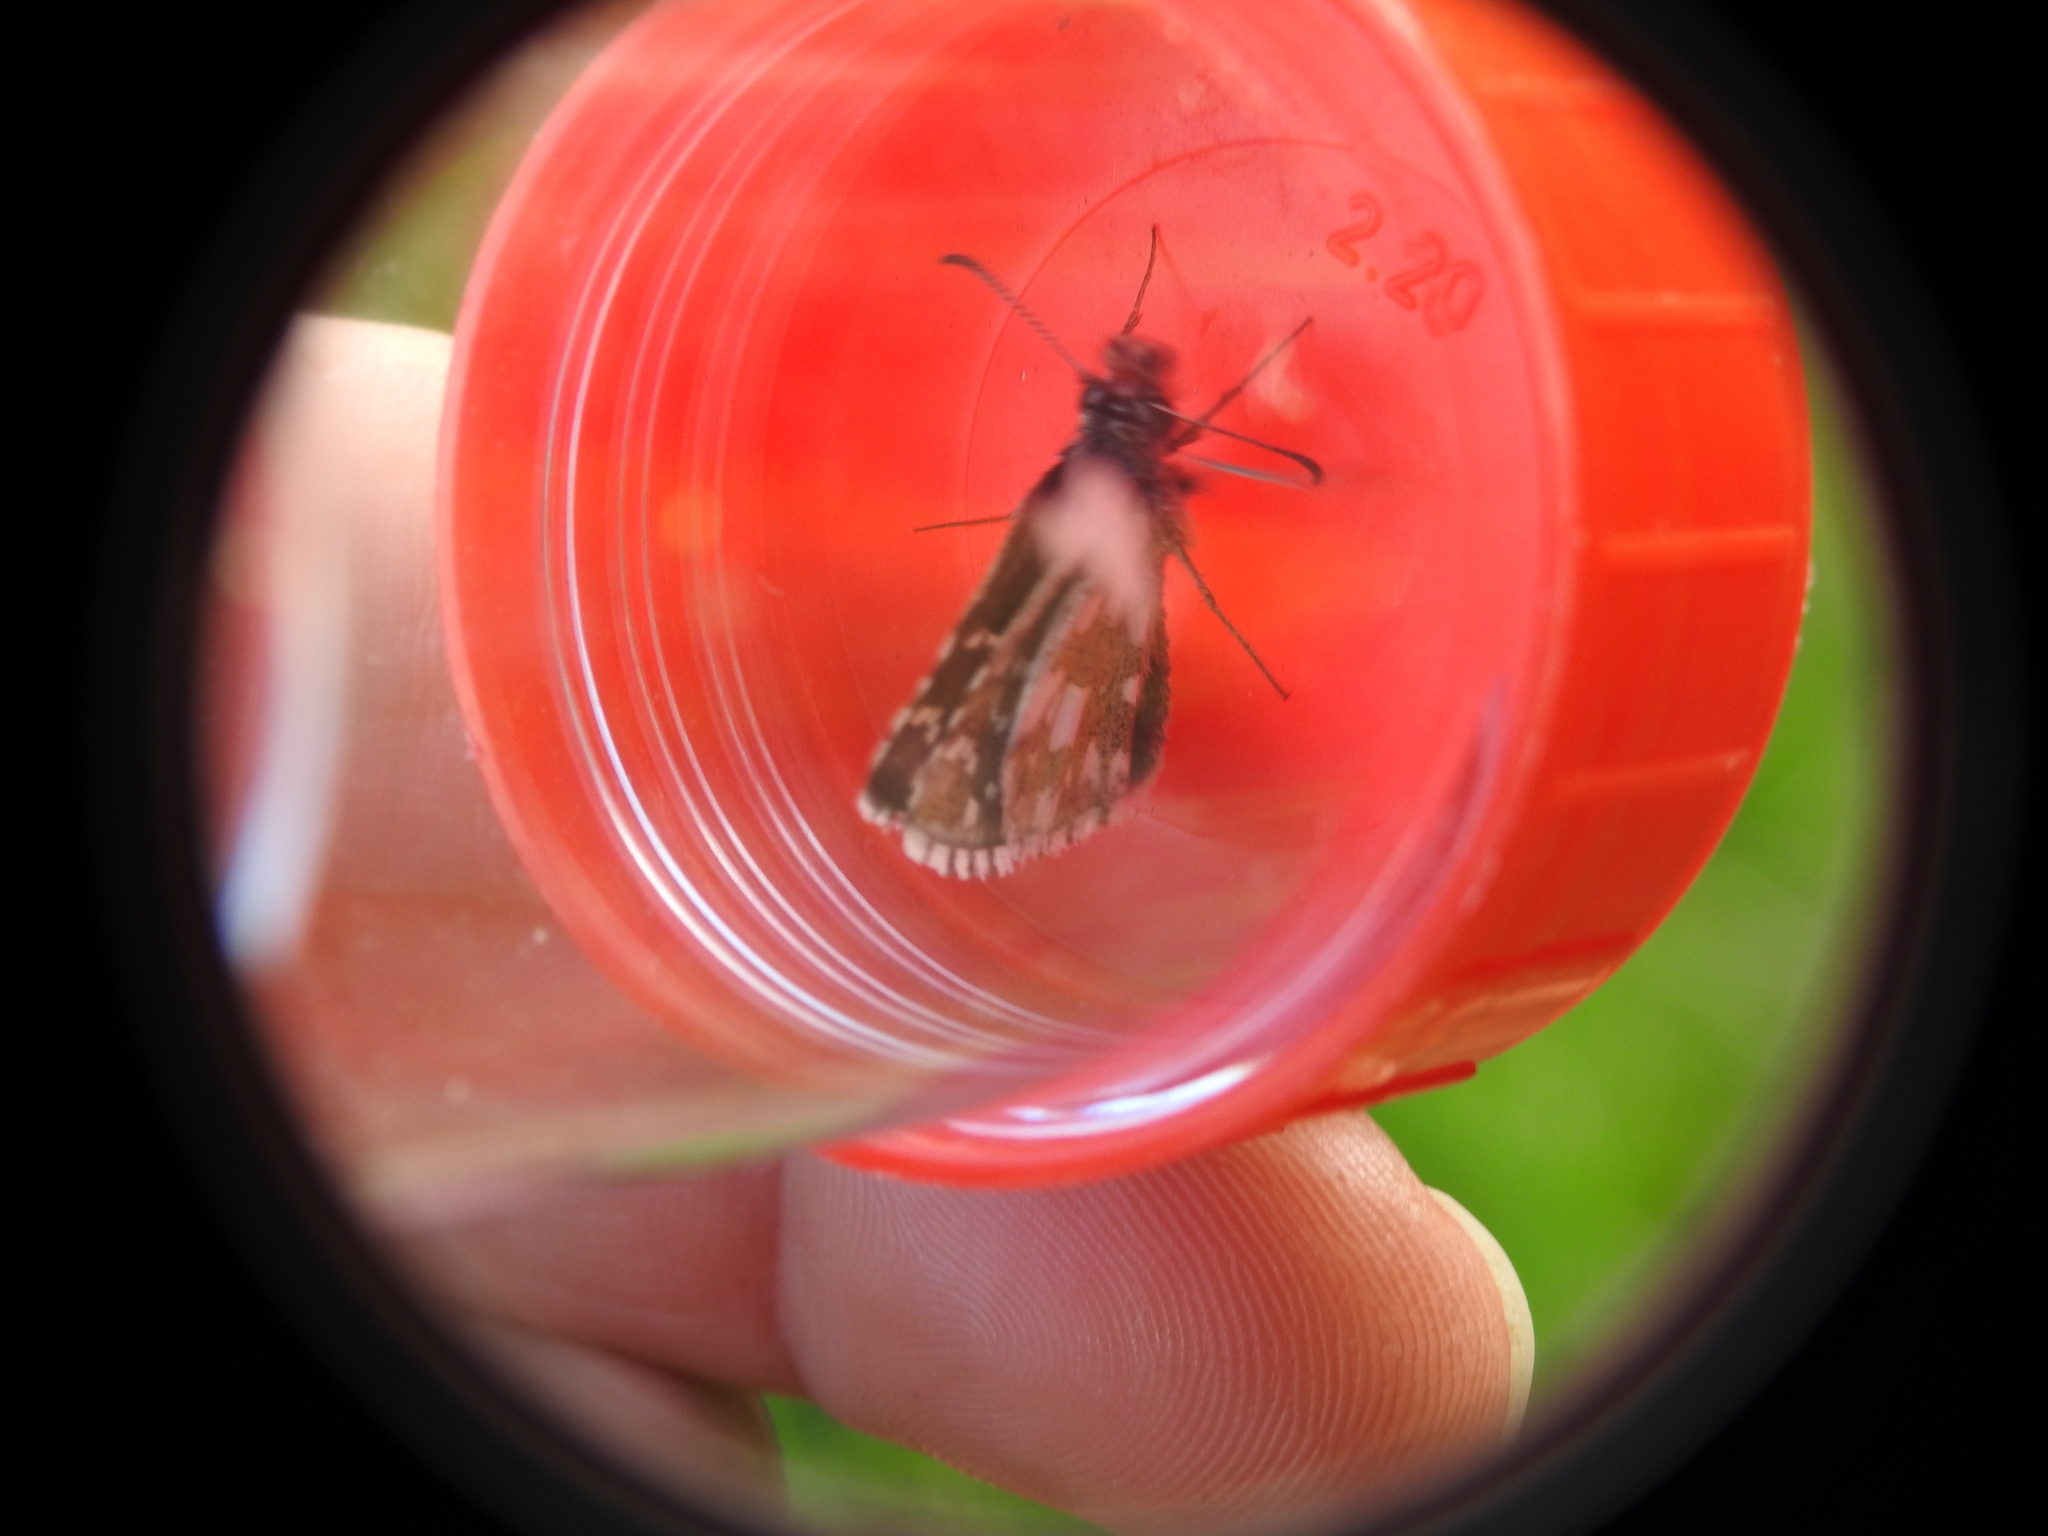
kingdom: Animalia
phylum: Arthropoda
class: Insecta
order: Lepidoptera
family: Hesperiidae
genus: Pyrgus
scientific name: Pyrgus serratulae
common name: Olive skipper
